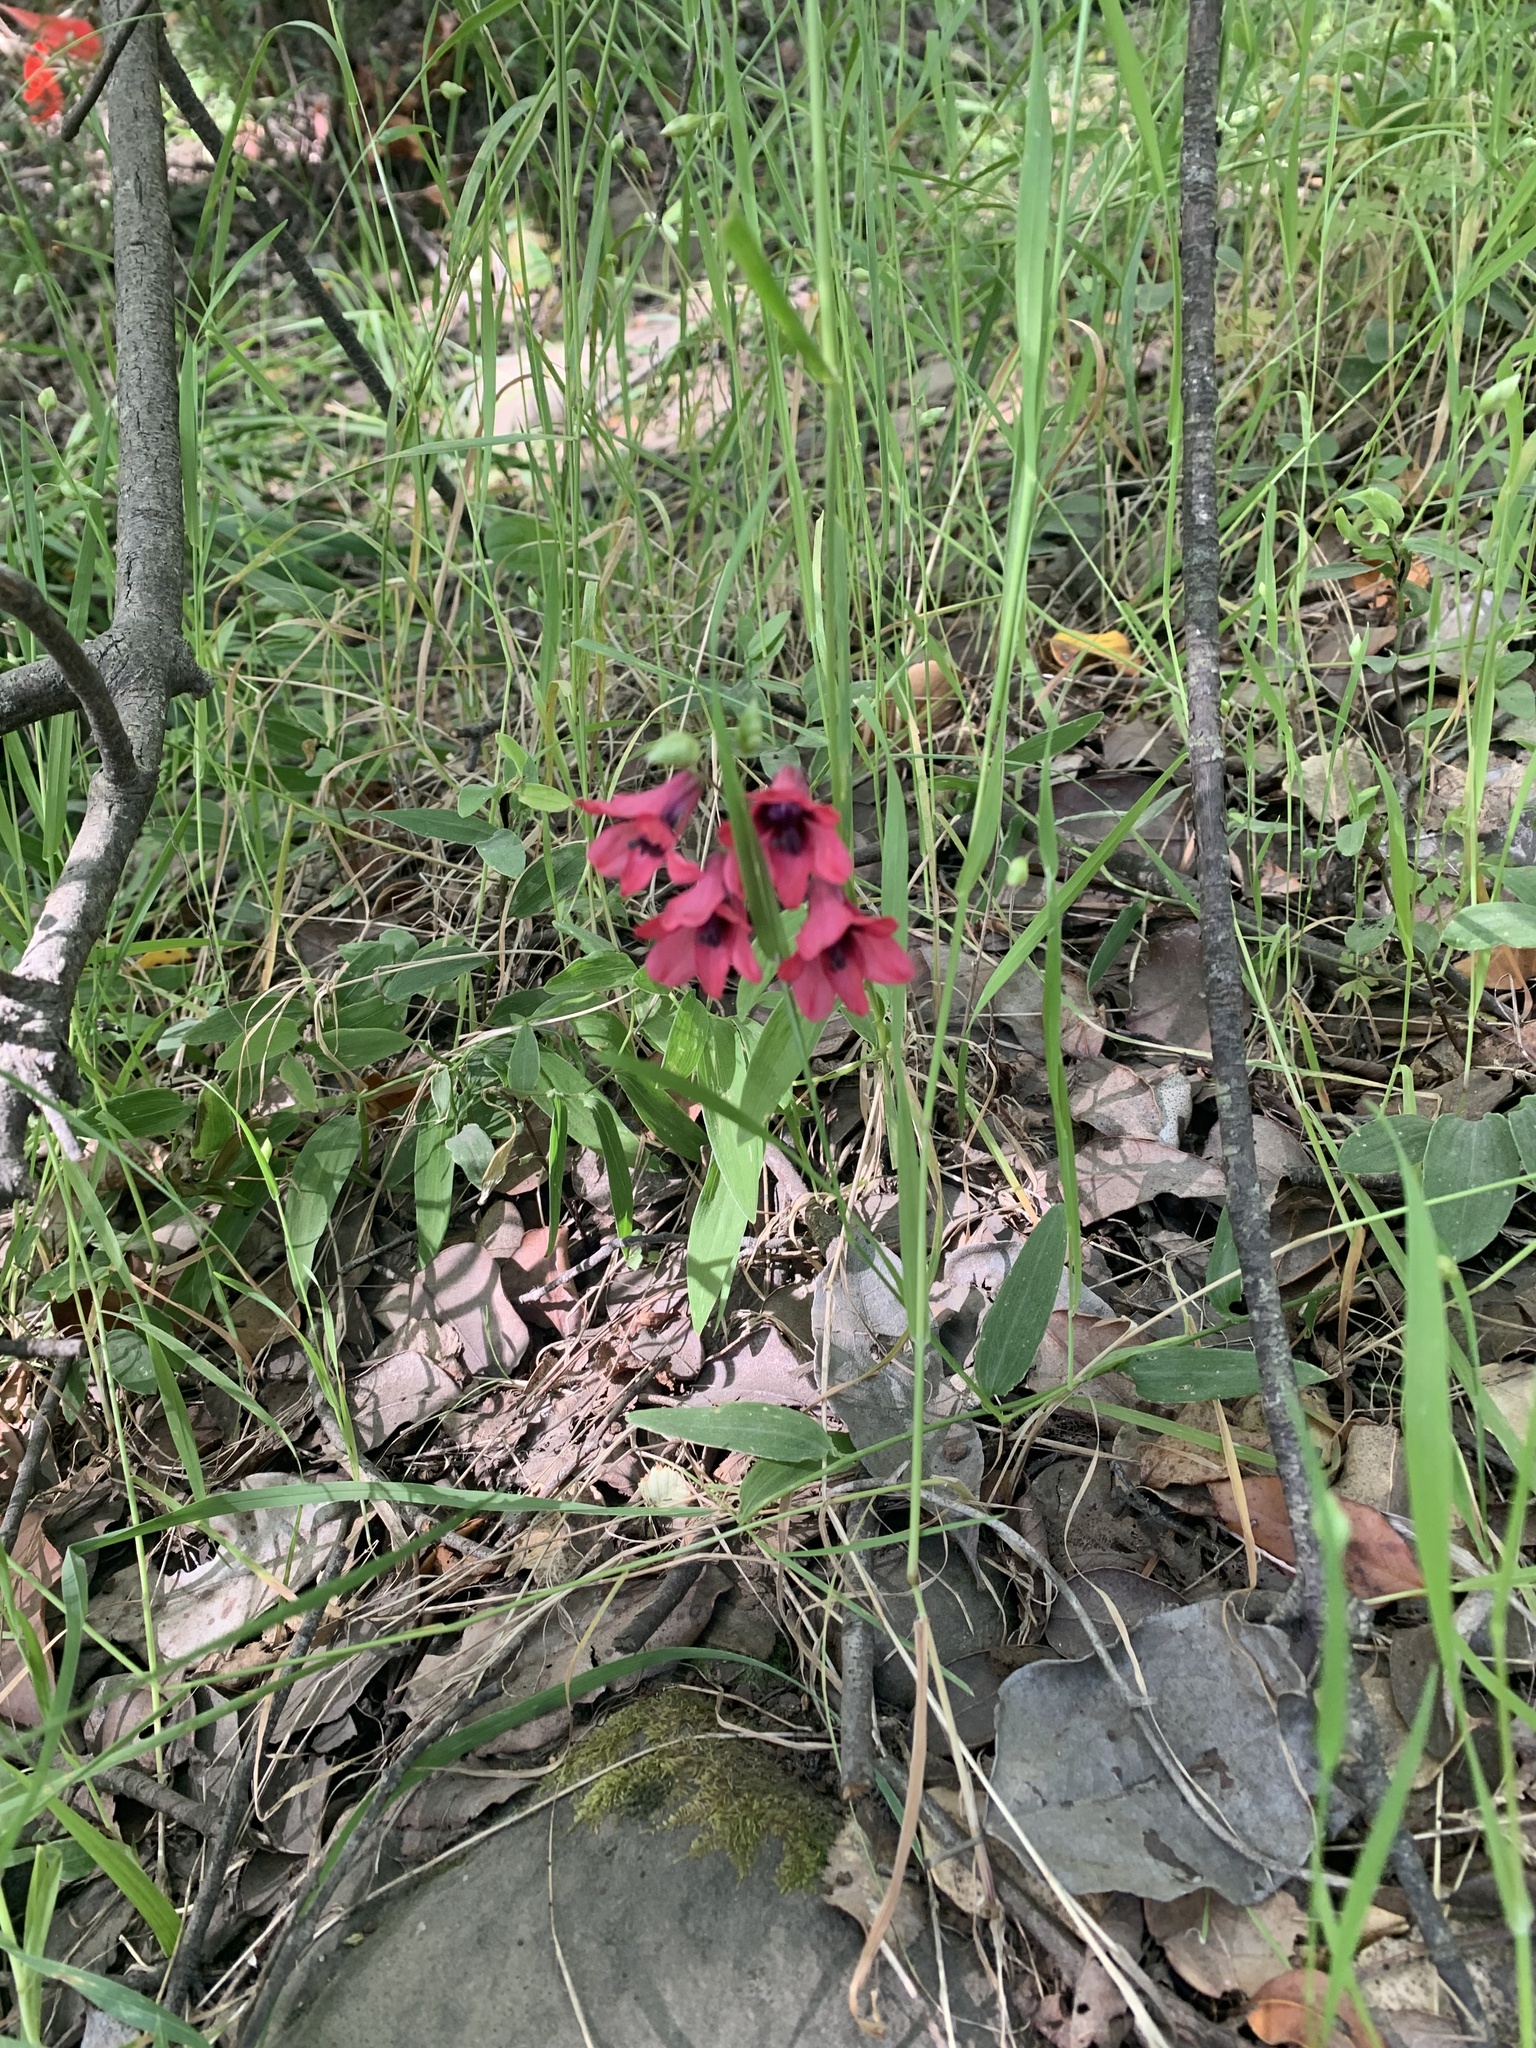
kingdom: Plantae
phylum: Tracheophyta
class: Liliopsida
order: Liliales
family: Alstroemeriaceae
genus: Bomarea
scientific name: Bomarea salsilla
